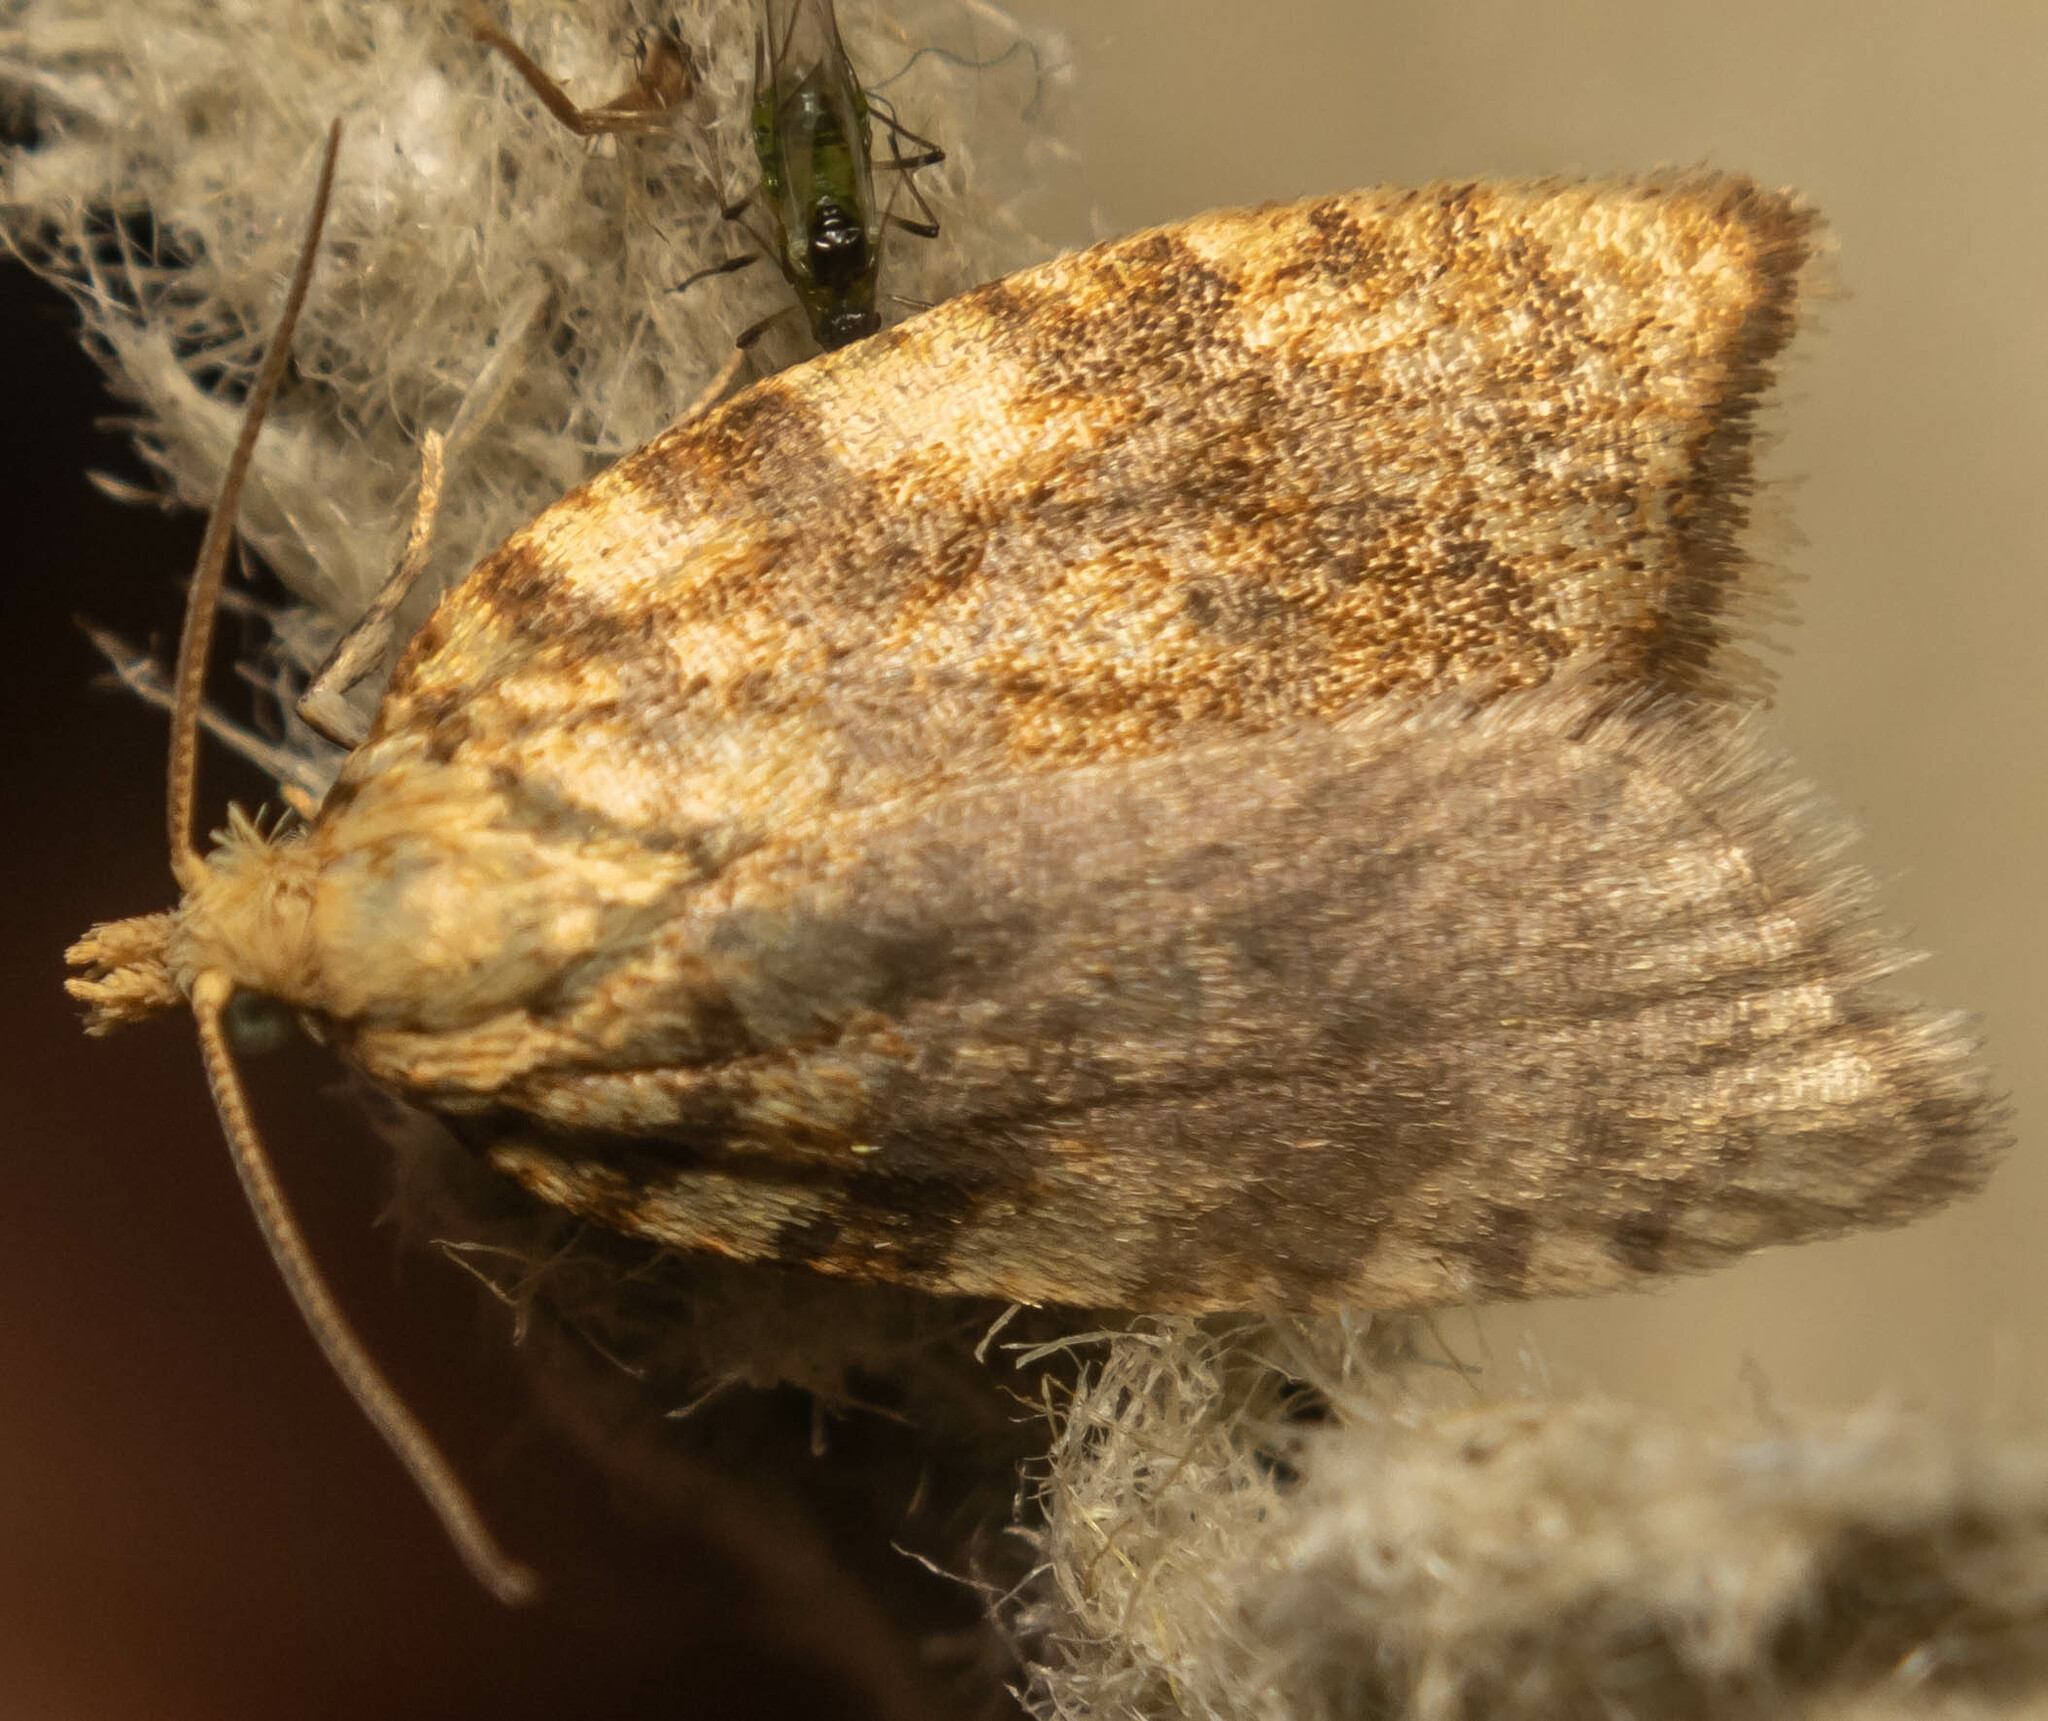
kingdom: Animalia
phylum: Arthropoda
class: Insecta
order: Lepidoptera
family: Tortricidae
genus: Aleimma
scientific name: Aleimma loeflingiana
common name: Yellow oak button
